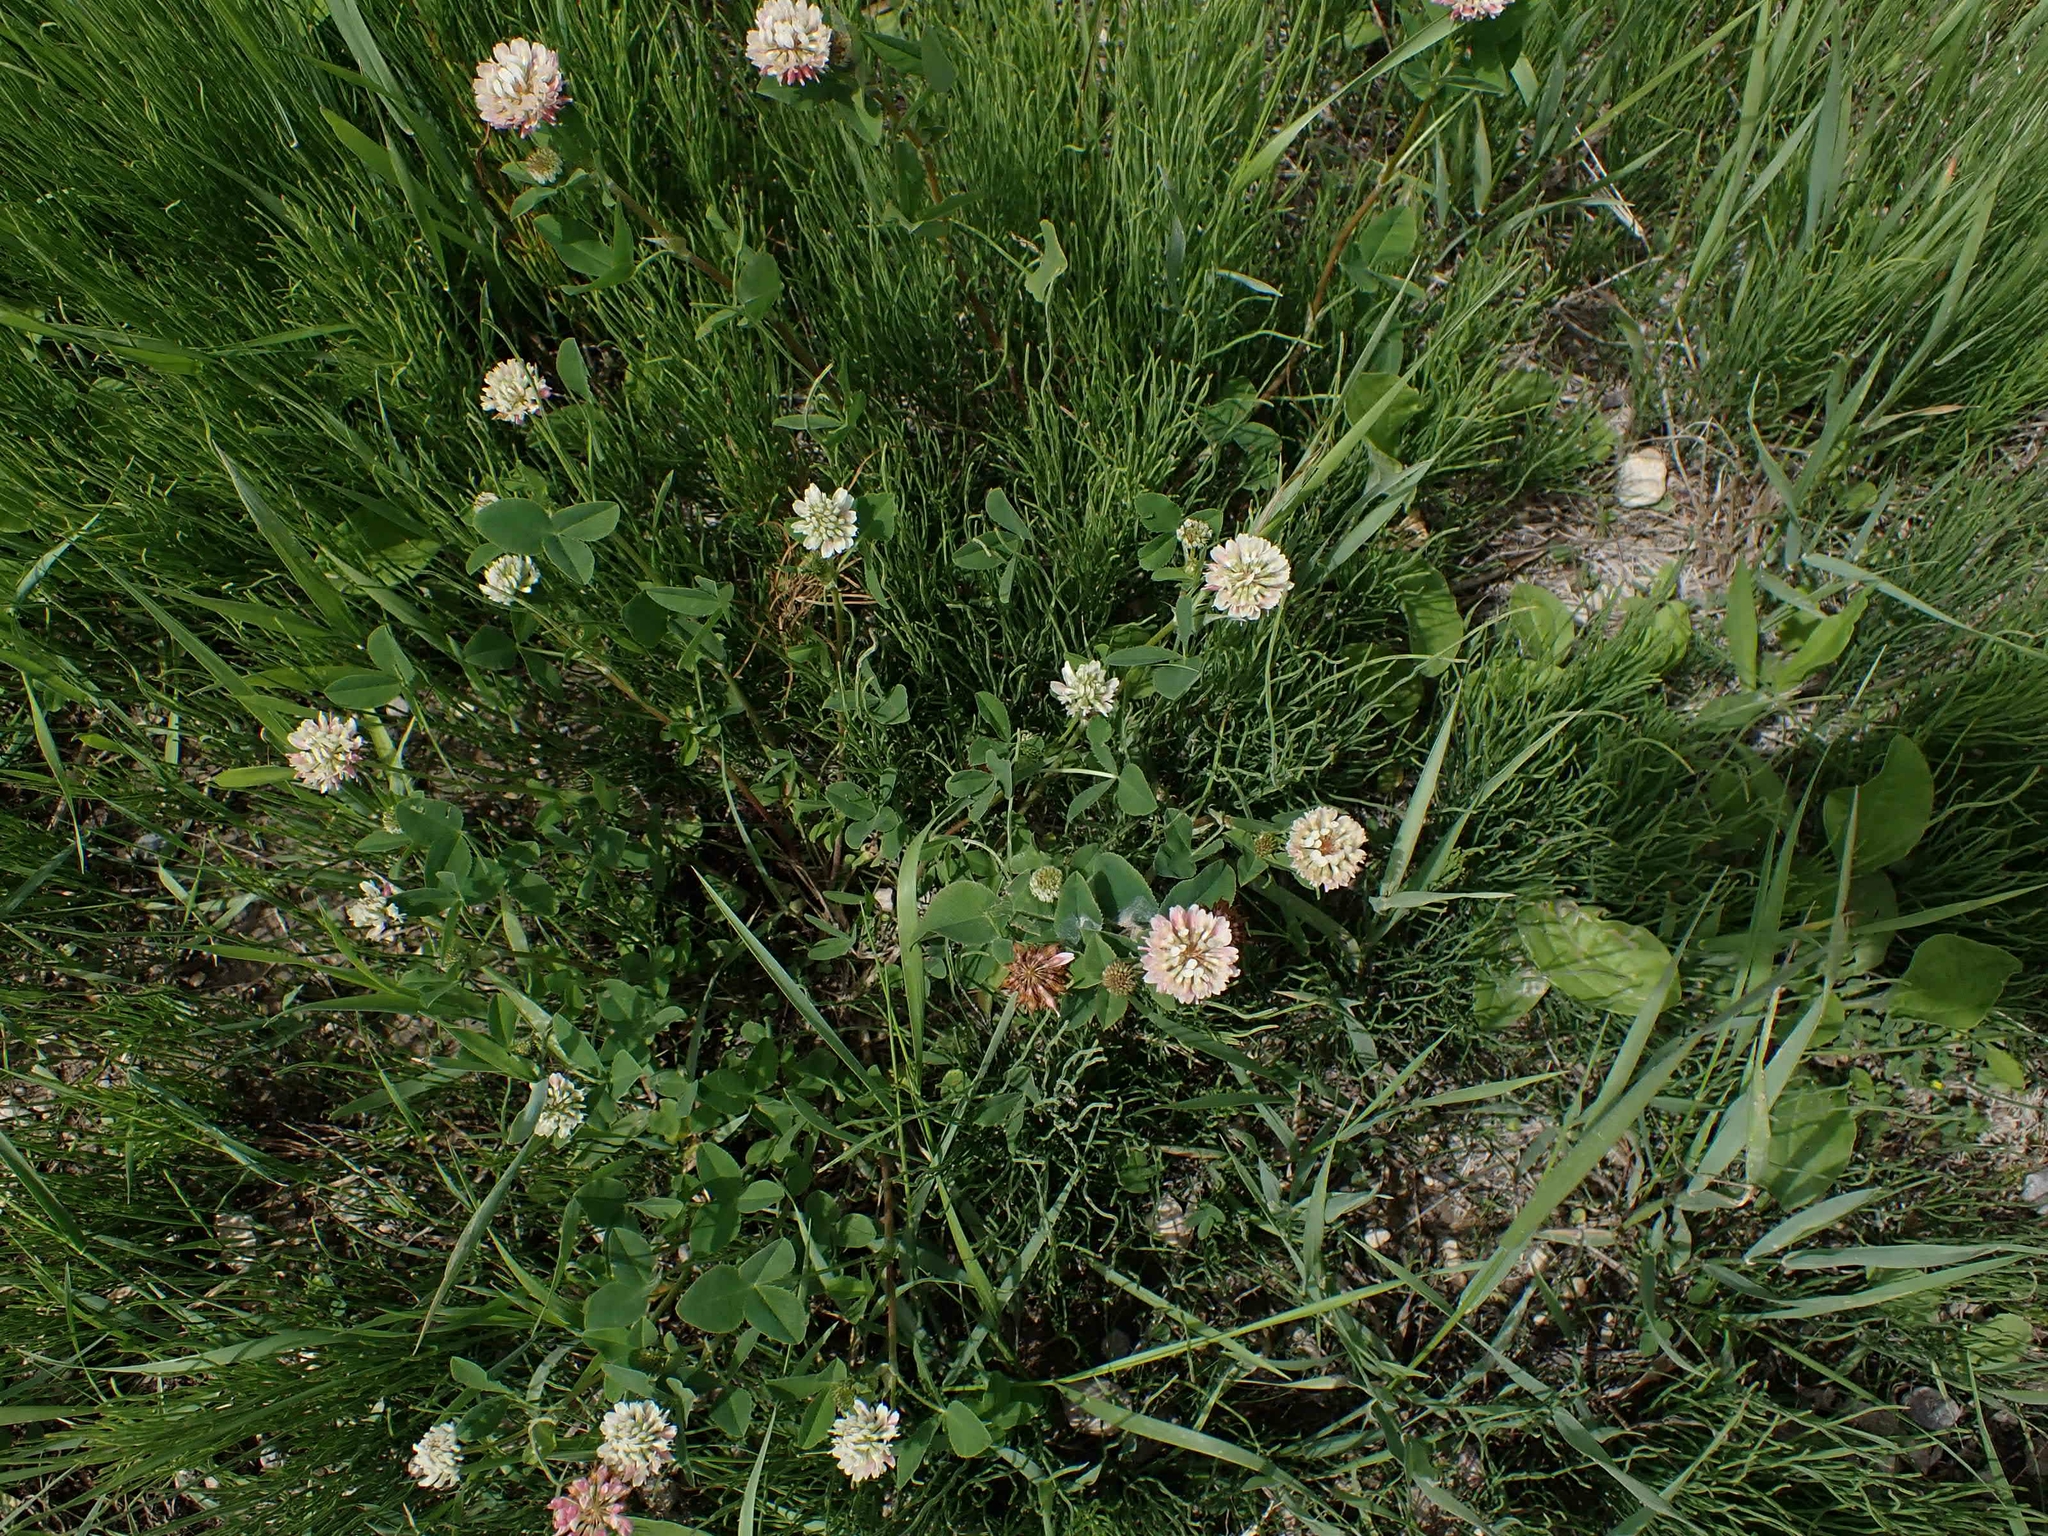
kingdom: Plantae
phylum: Tracheophyta
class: Magnoliopsida
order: Fabales
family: Fabaceae
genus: Trifolium
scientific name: Trifolium hybridum
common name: Alsike clover
